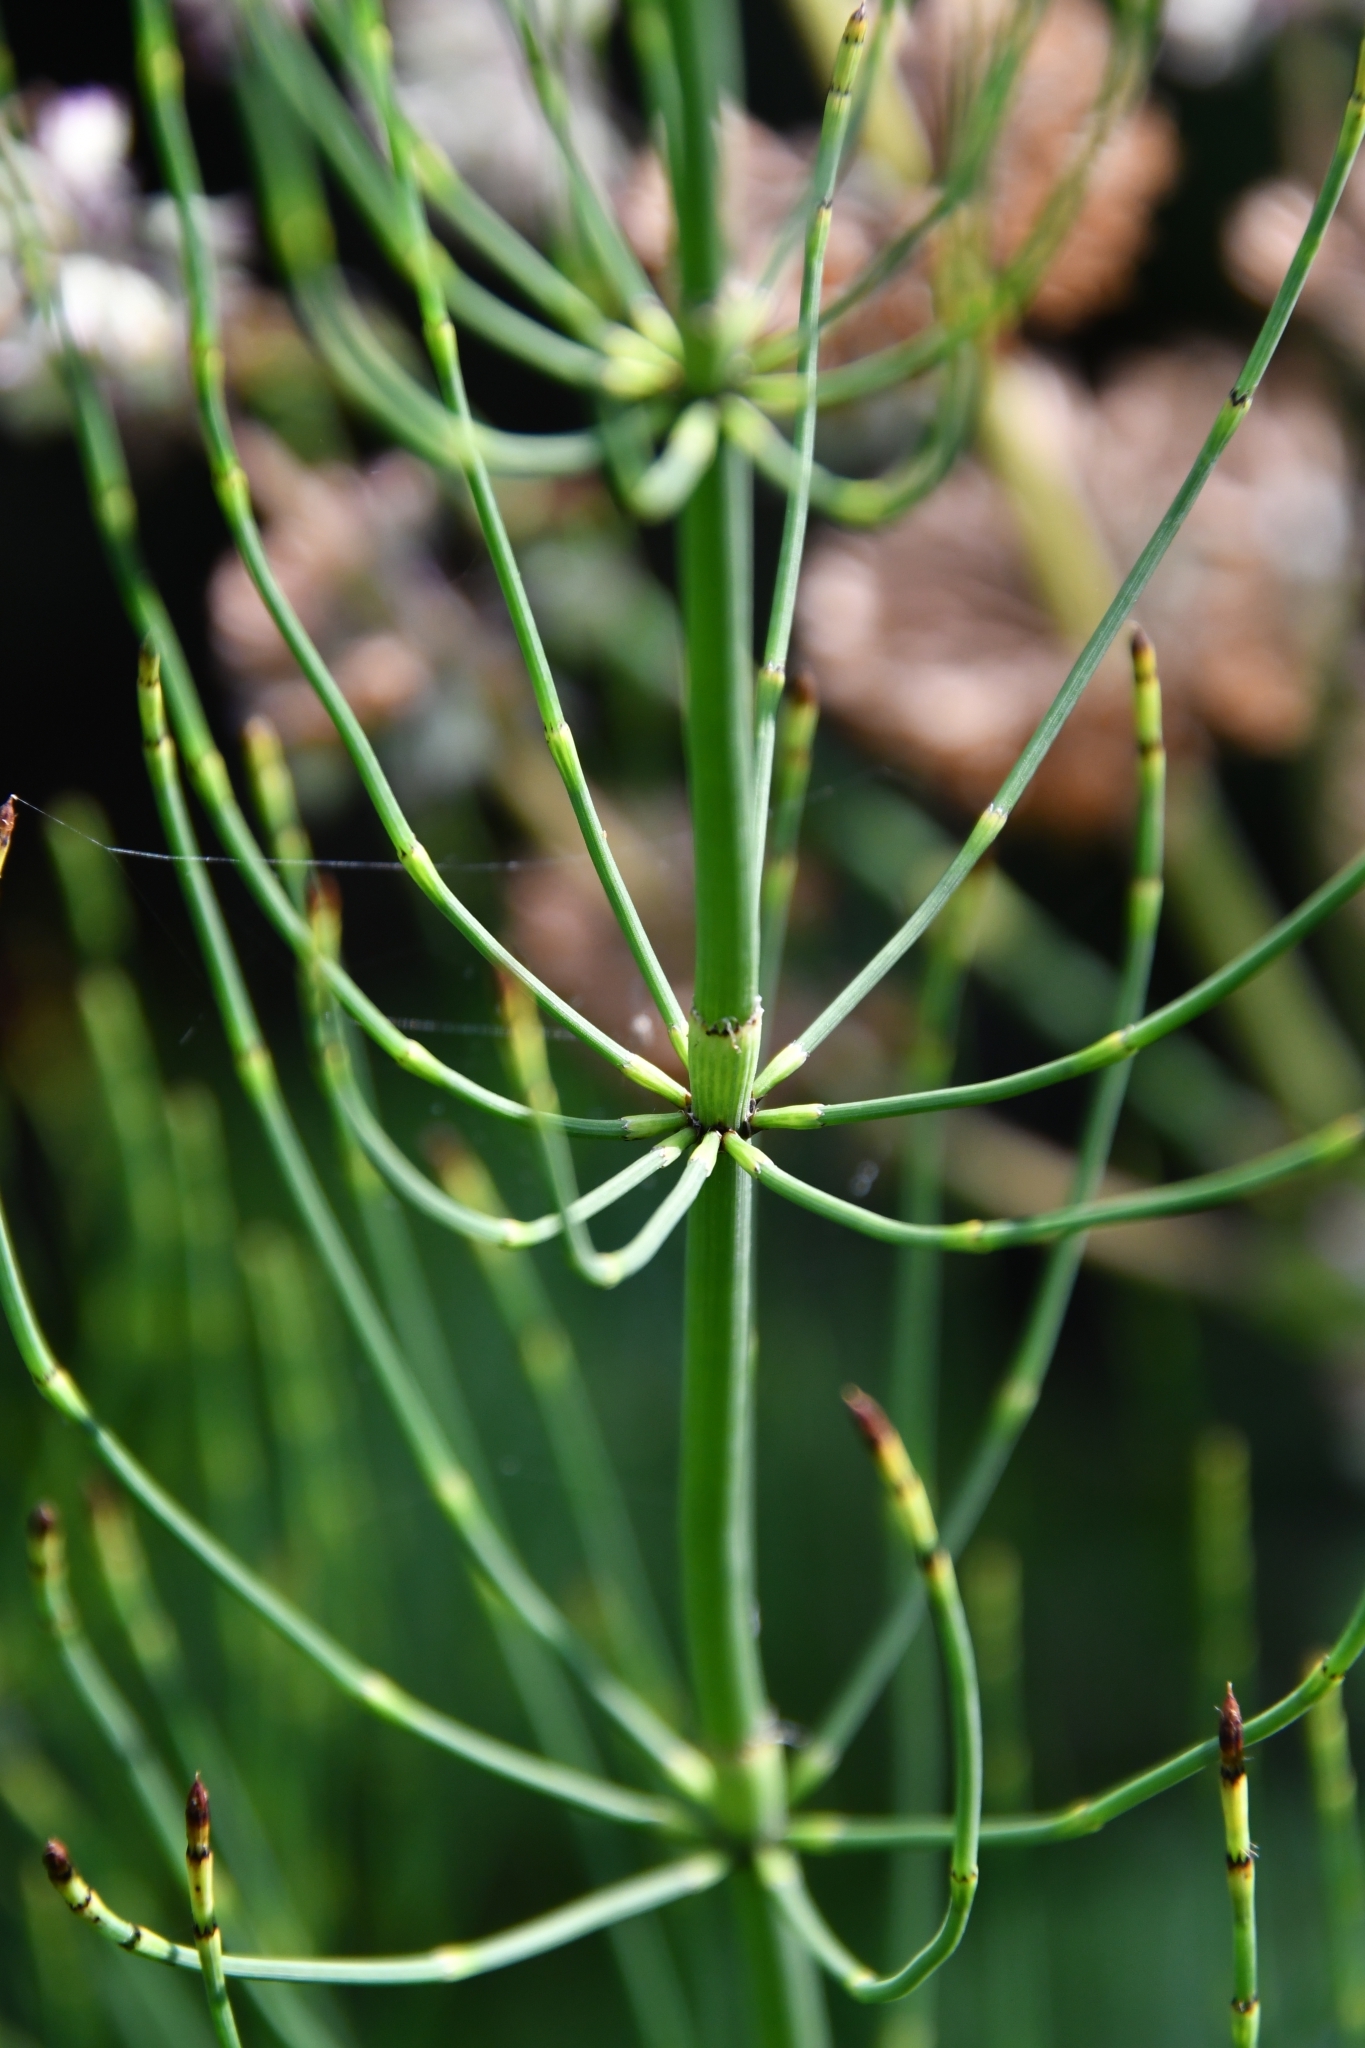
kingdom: Plantae
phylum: Tracheophyta
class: Polypodiopsida
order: Equisetales
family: Equisetaceae
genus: Equisetum
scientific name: Equisetum ramosissimum
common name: Branched horsetail
